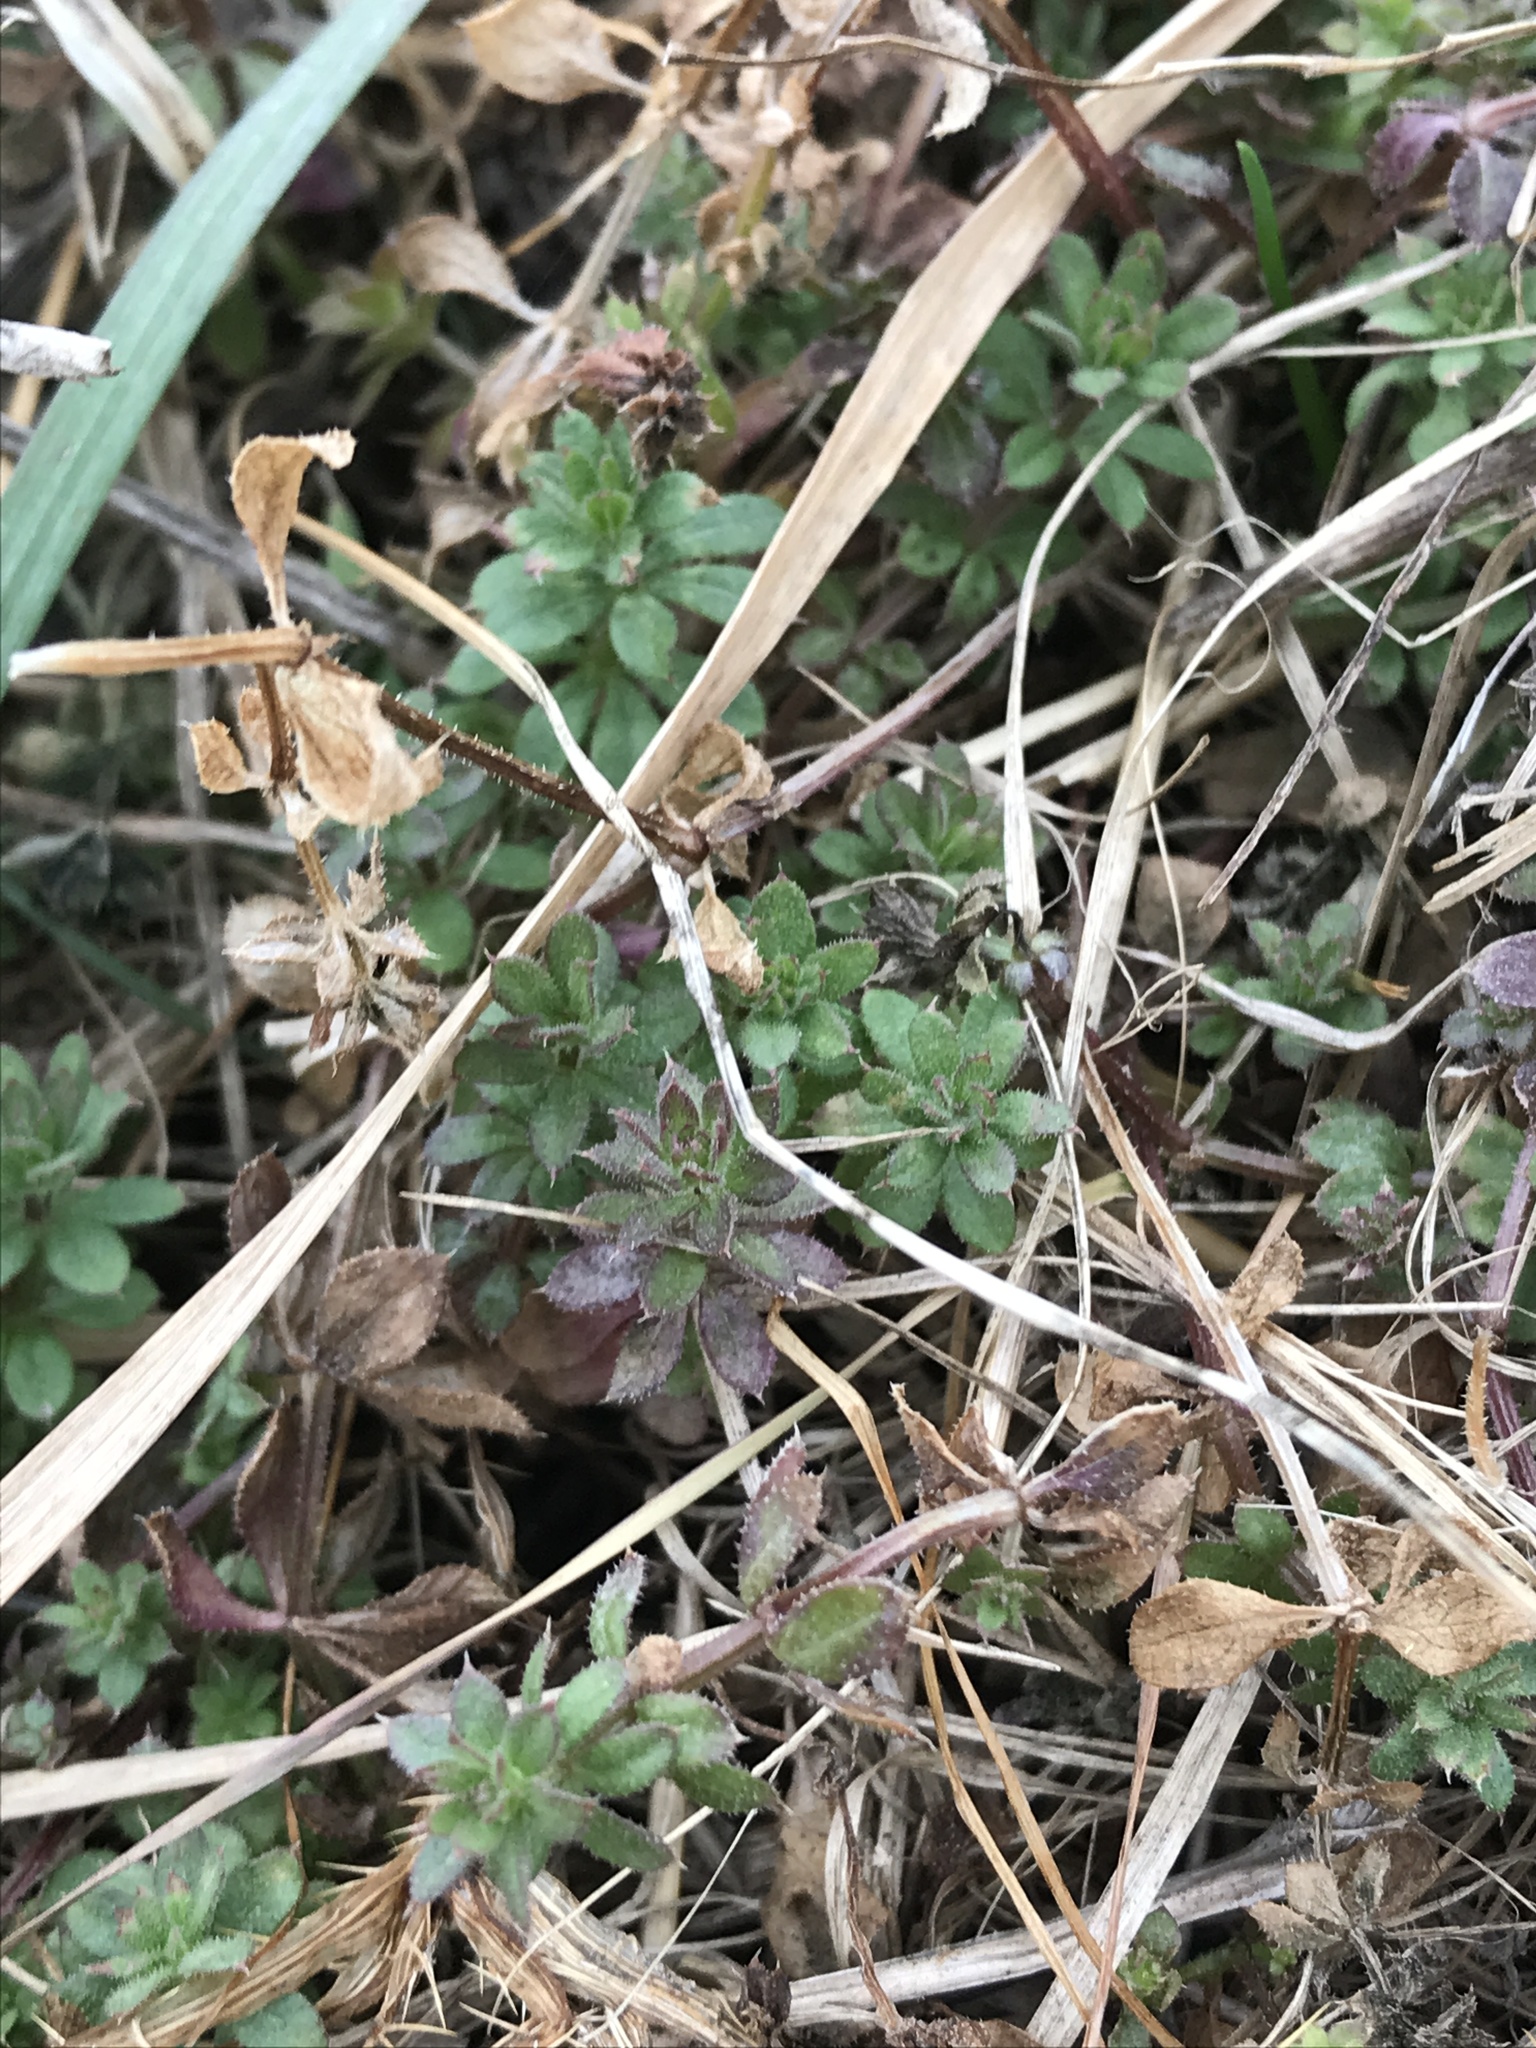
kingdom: Plantae
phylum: Tracheophyta
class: Magnoliopsida
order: Gentianales
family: Rubiaceae
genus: Galium
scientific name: Galium aparine
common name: Cleavers
